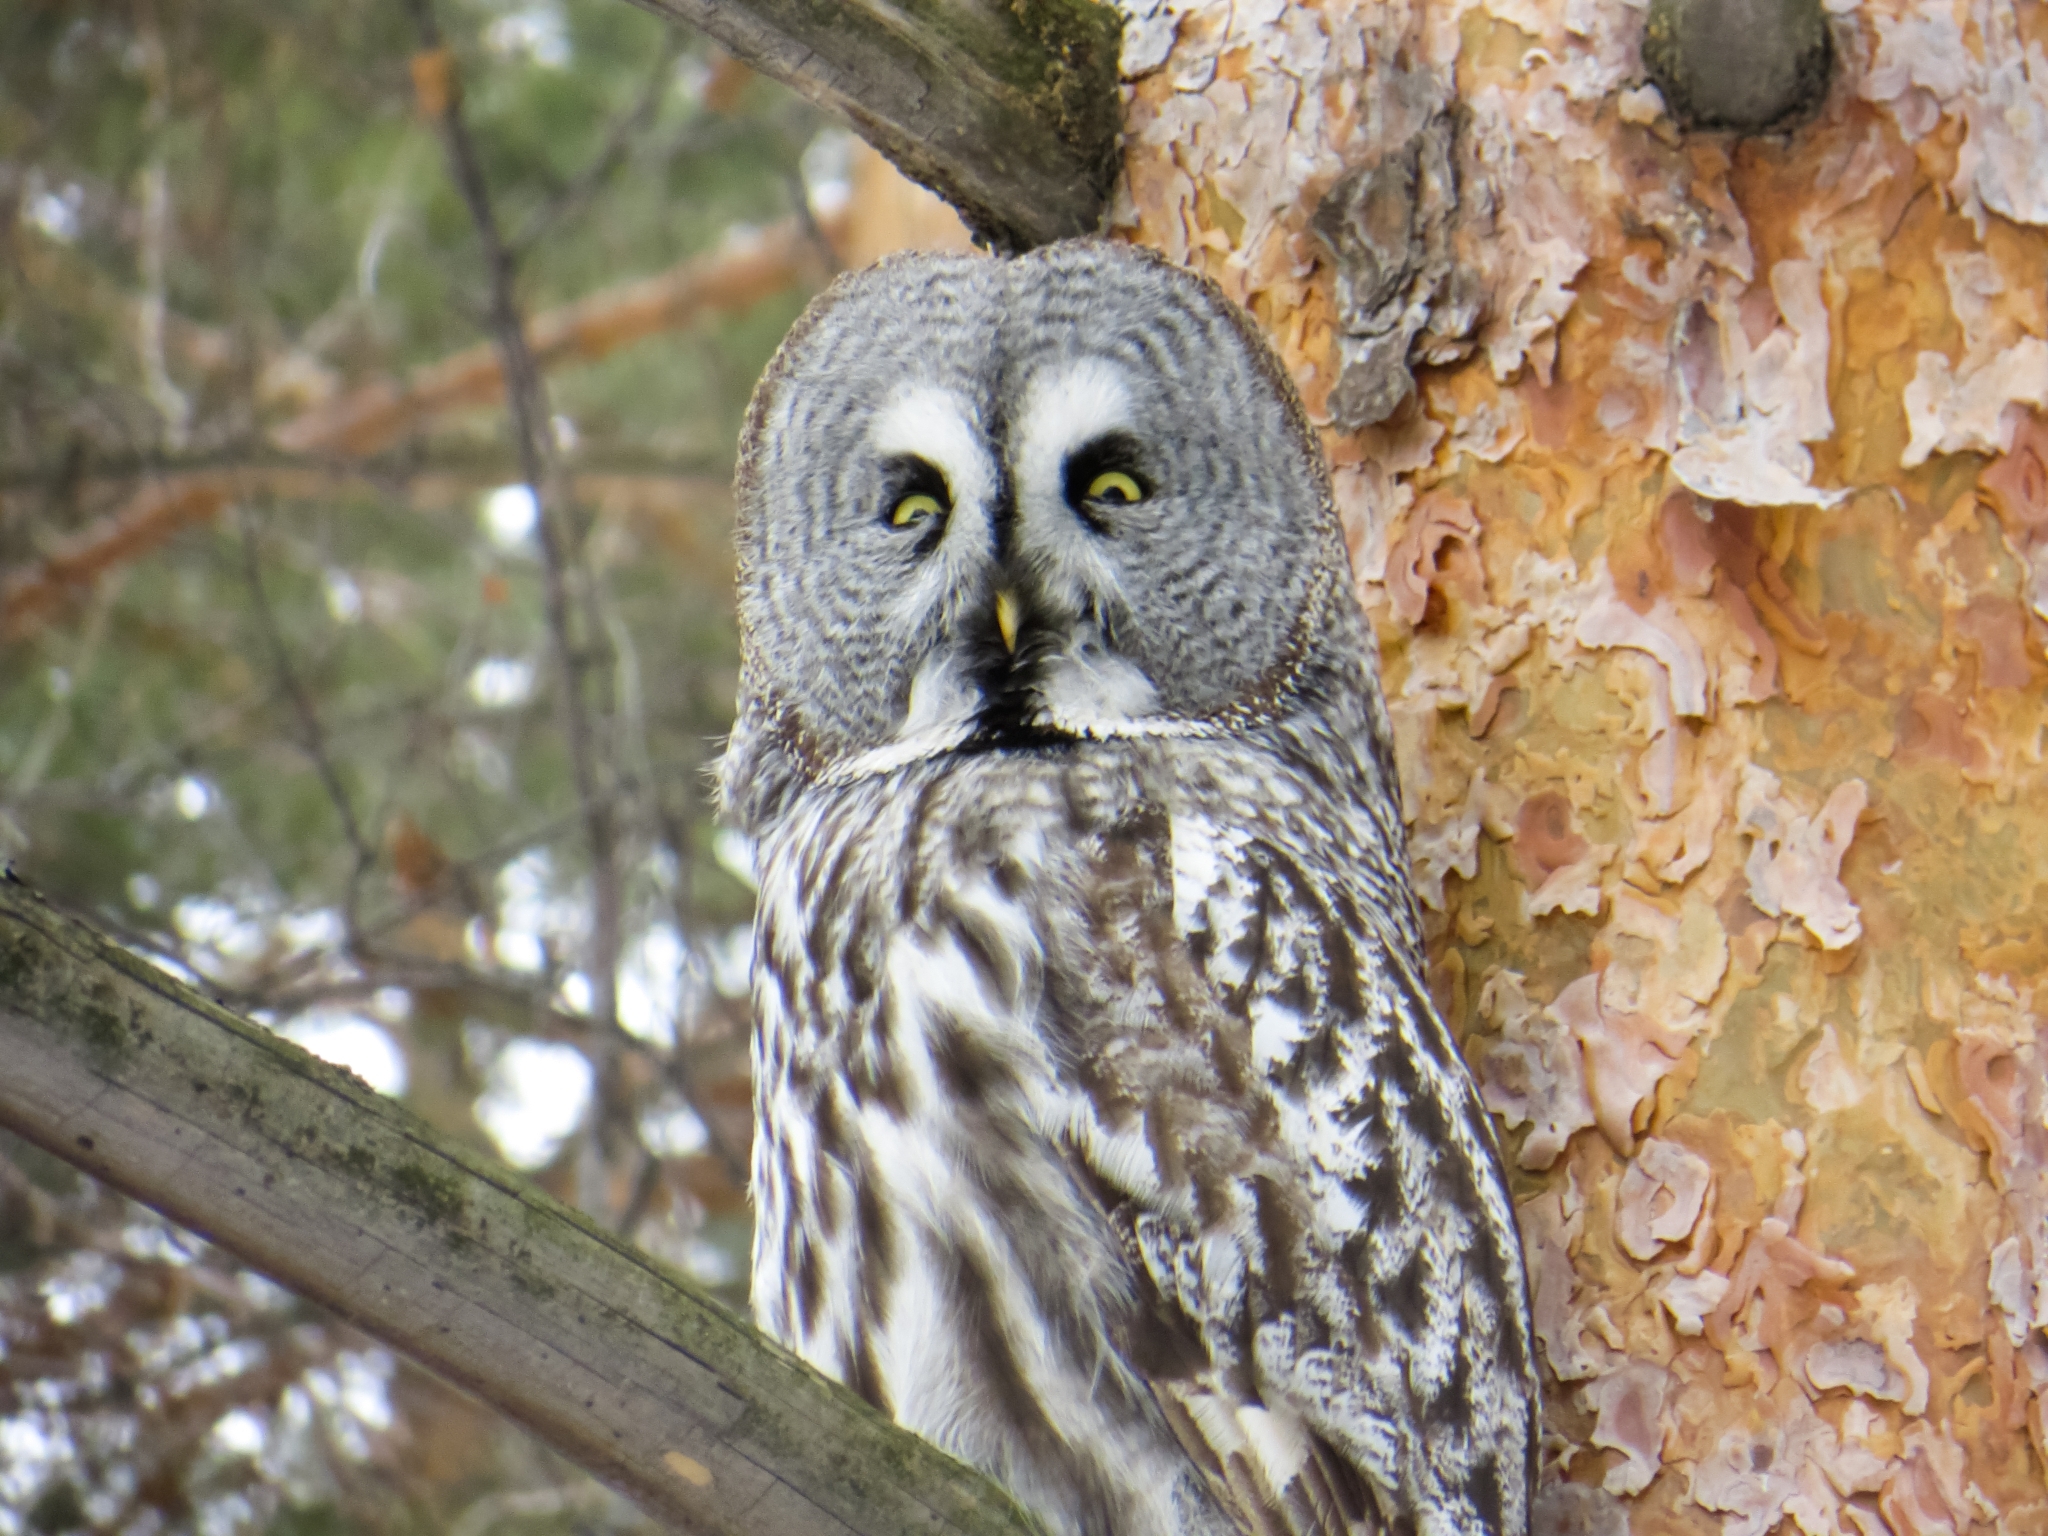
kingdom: Animalia
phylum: Chordata
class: Aves
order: Strigiformes
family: Strigidae
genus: Strix
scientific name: Strix nebulosa
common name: Great grey owl
